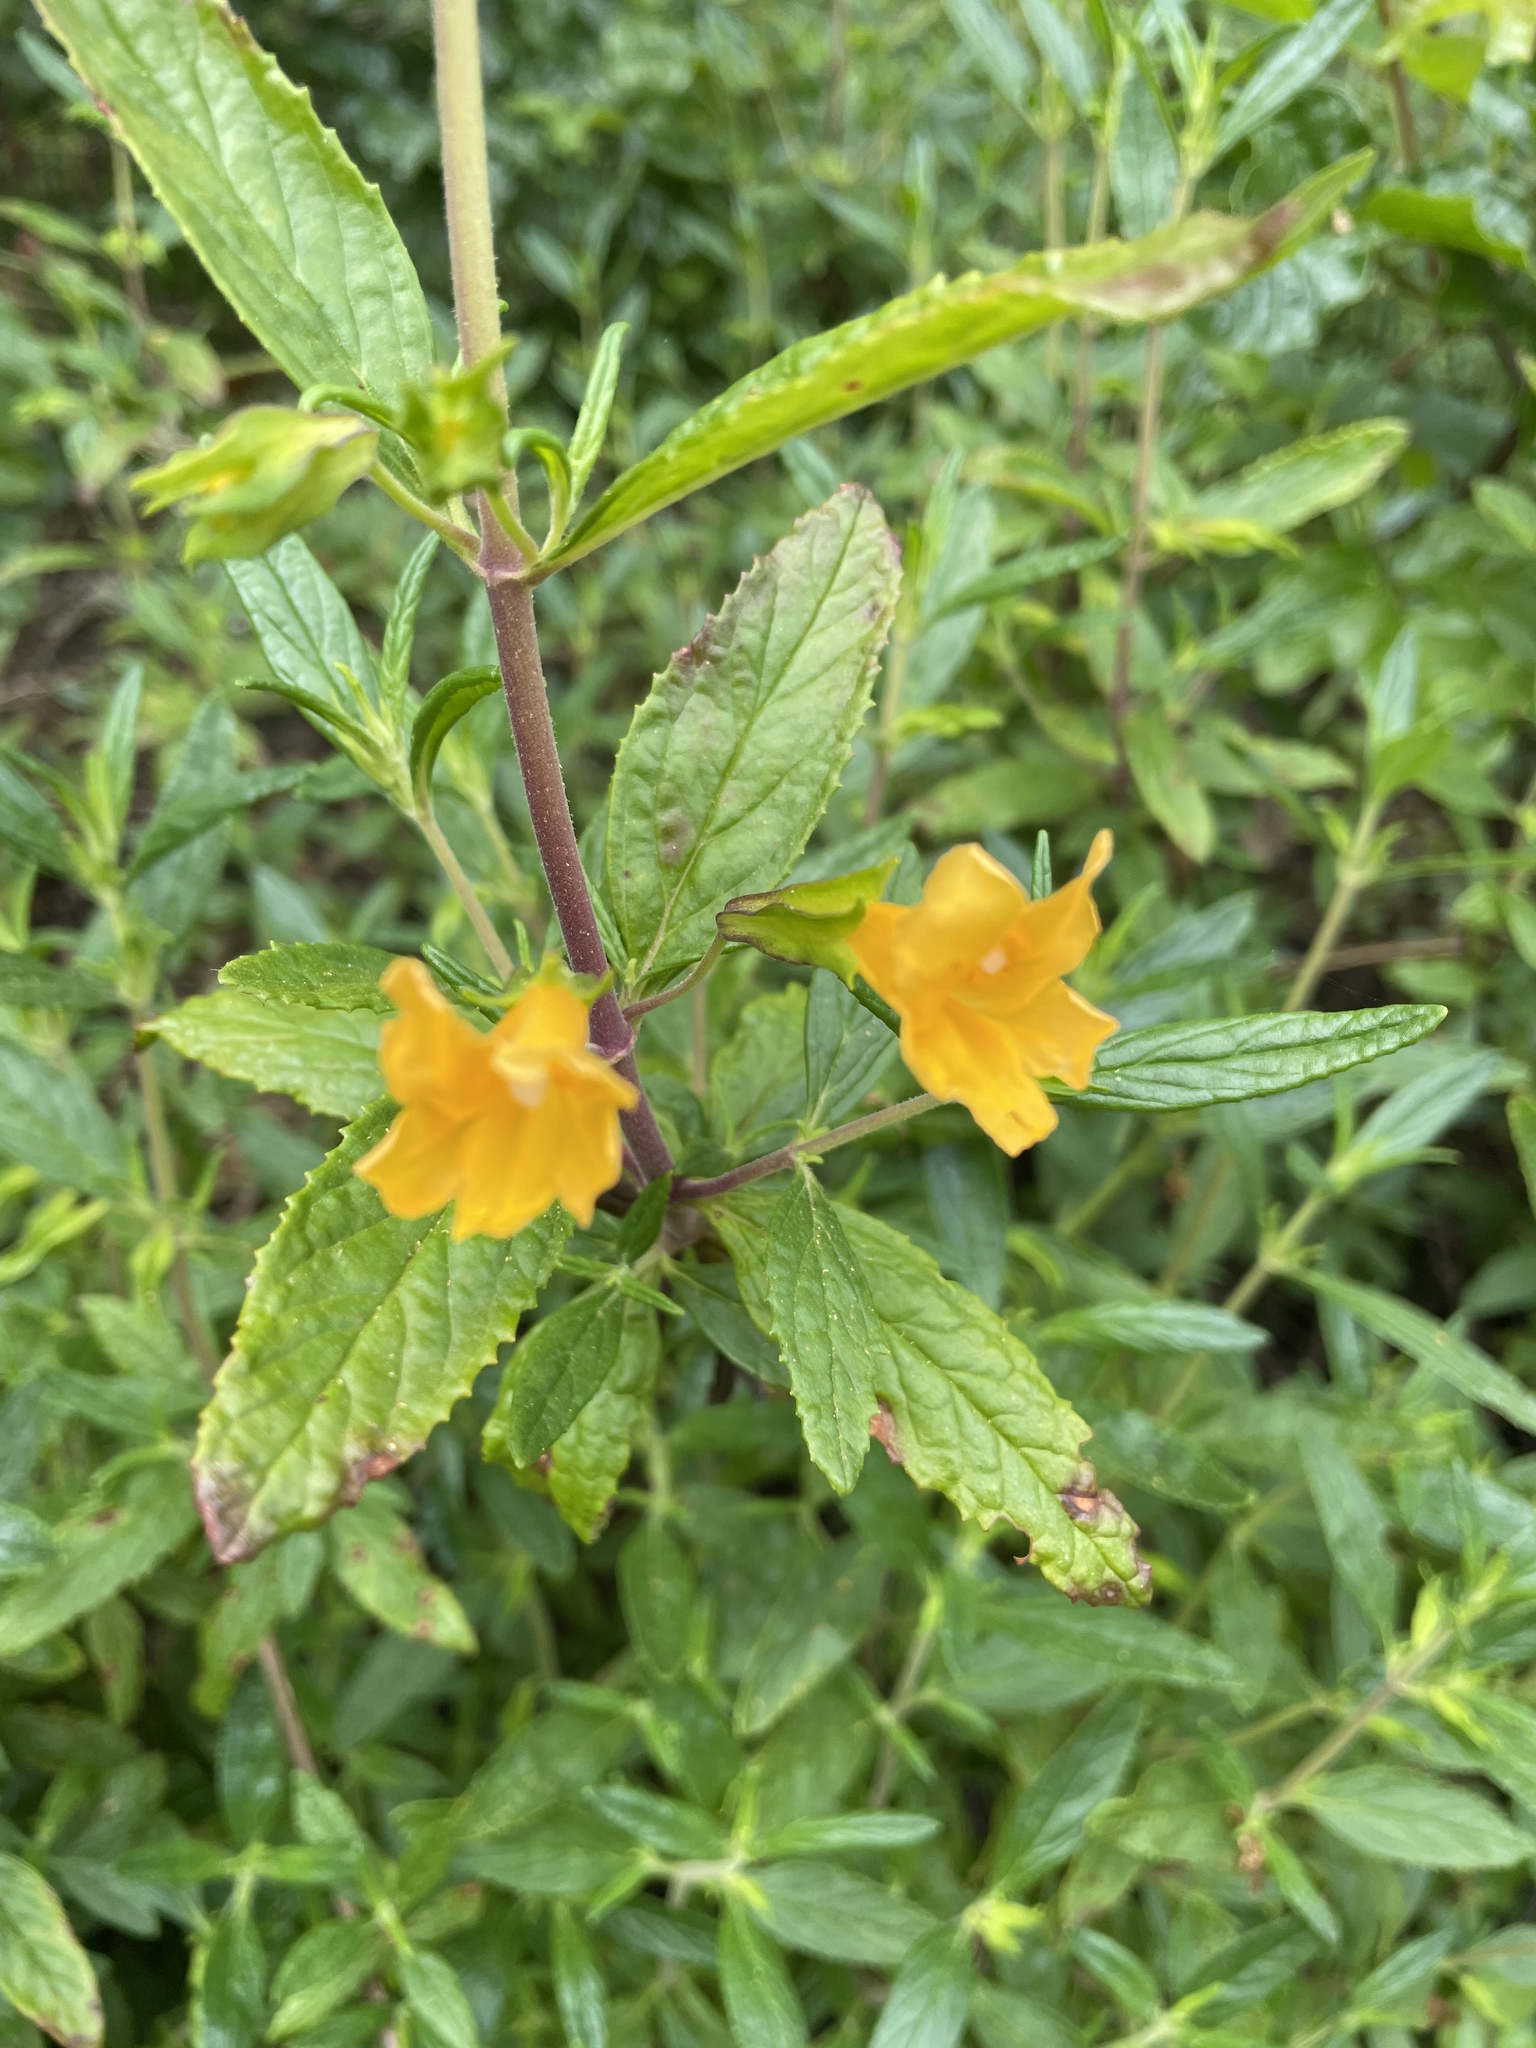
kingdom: Plantae
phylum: Tracheophyta
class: Magnoliopsida
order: Lamiales
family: Phrymaceae
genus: Diplacus
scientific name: Diplacus aurantiacus
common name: Bush monkey-flower
